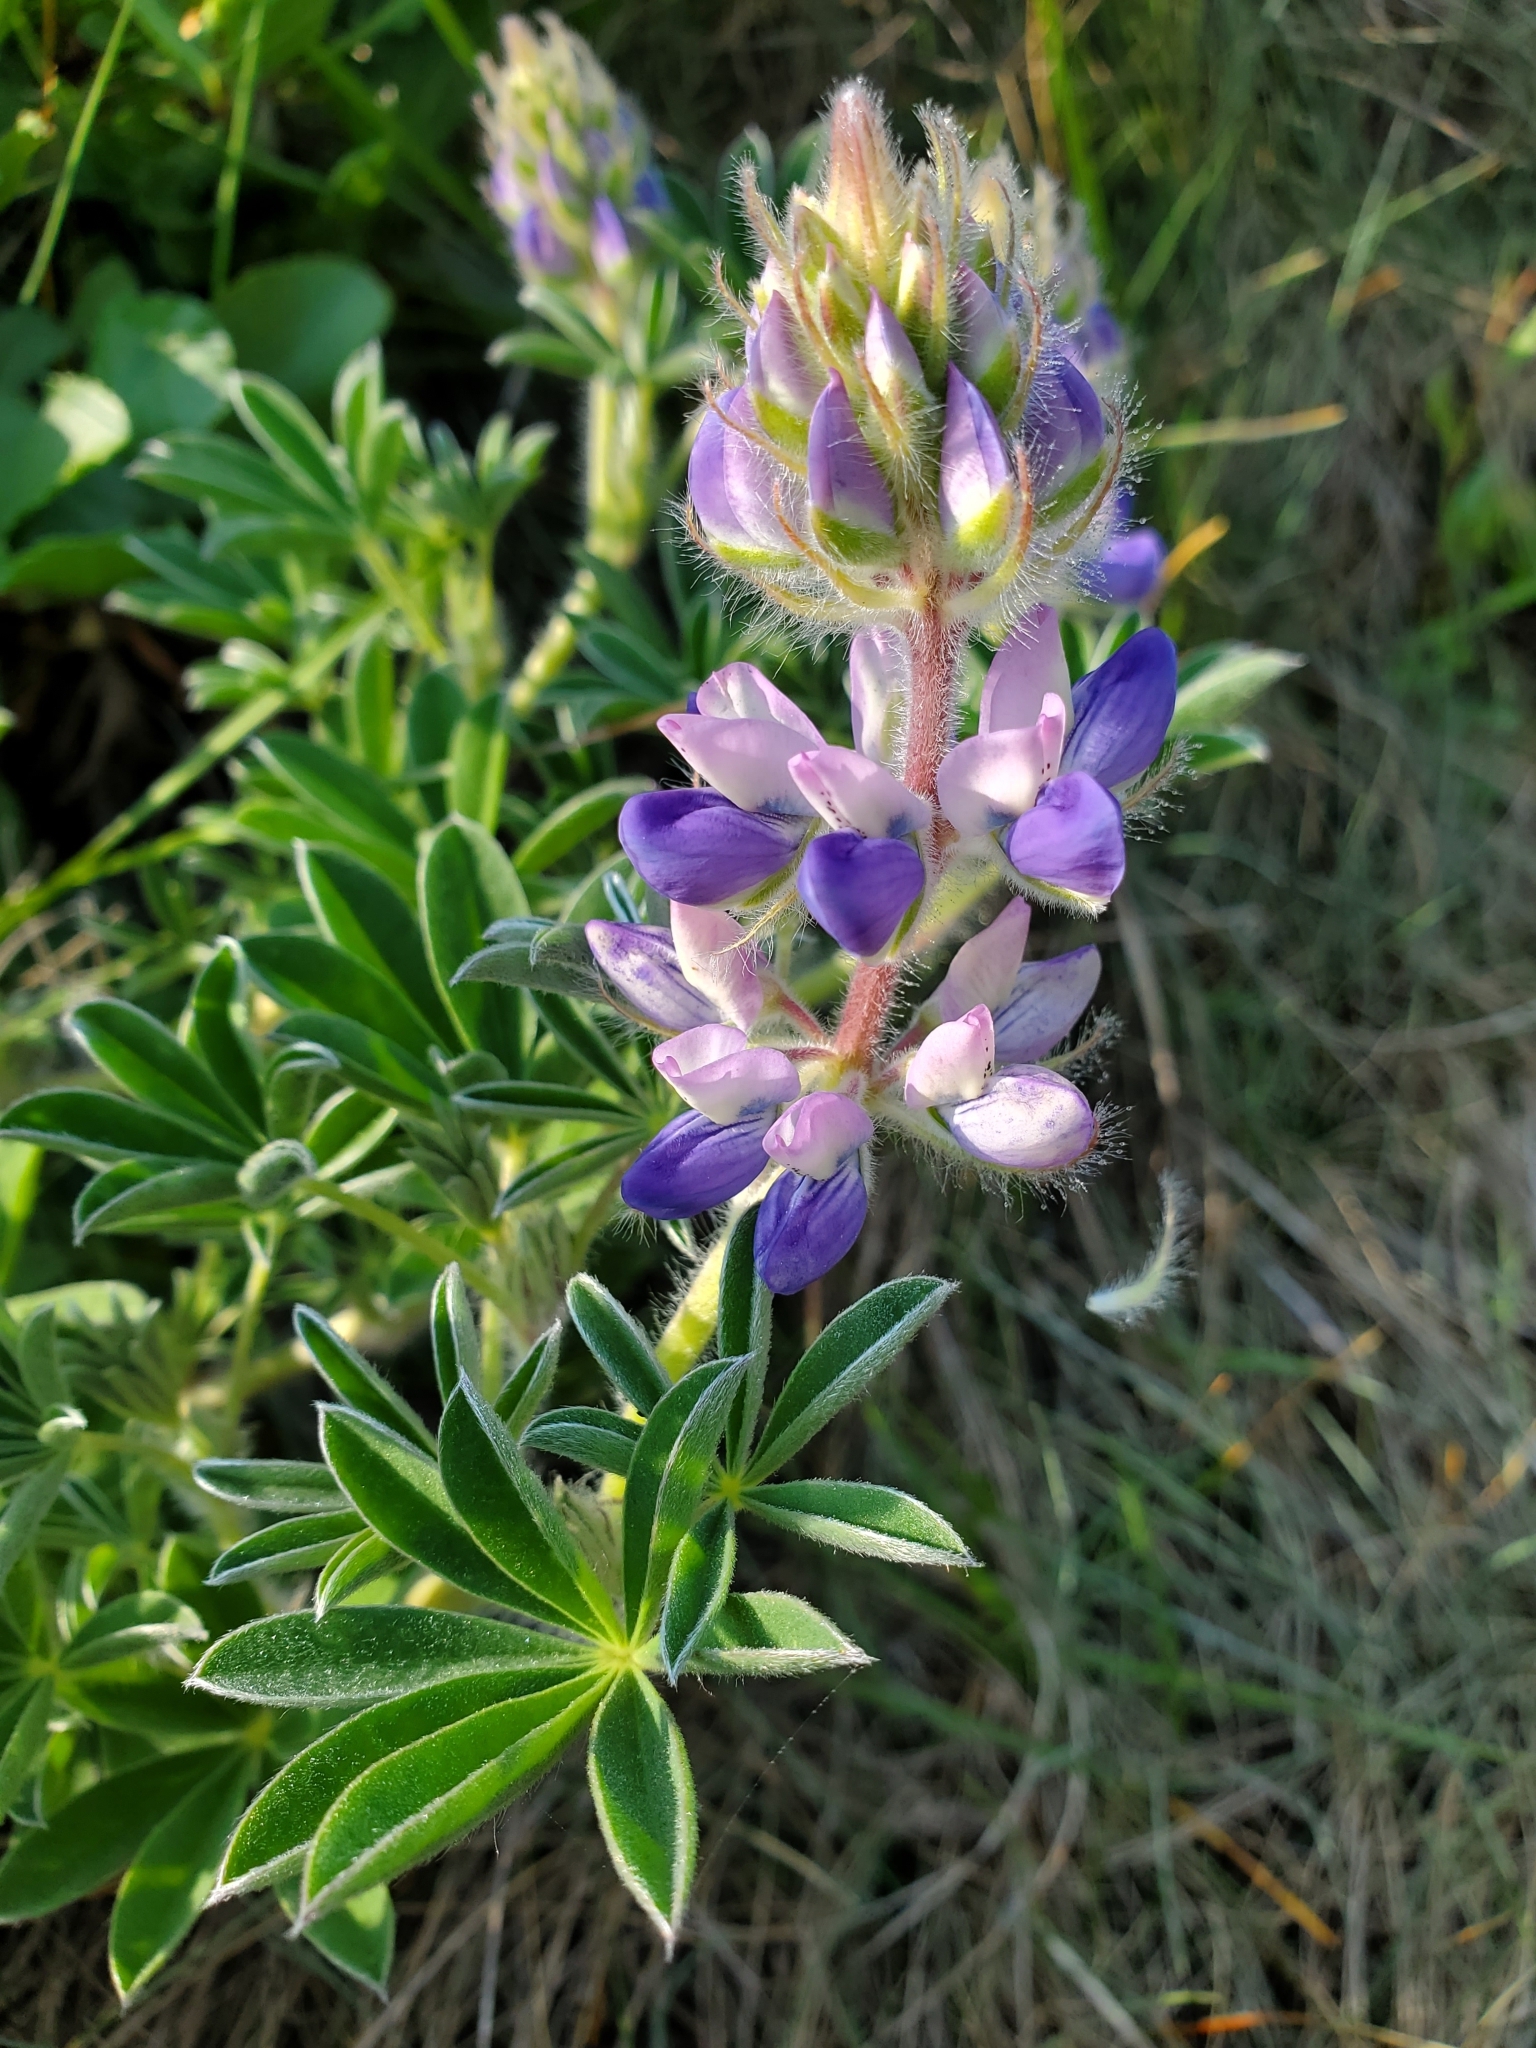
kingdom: Plantae
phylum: Tracheophyta
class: Magnoliopsida
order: Fabales
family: Fabaceae
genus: Lupinus
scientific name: Lupinus littoralis
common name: Seashore lupine
